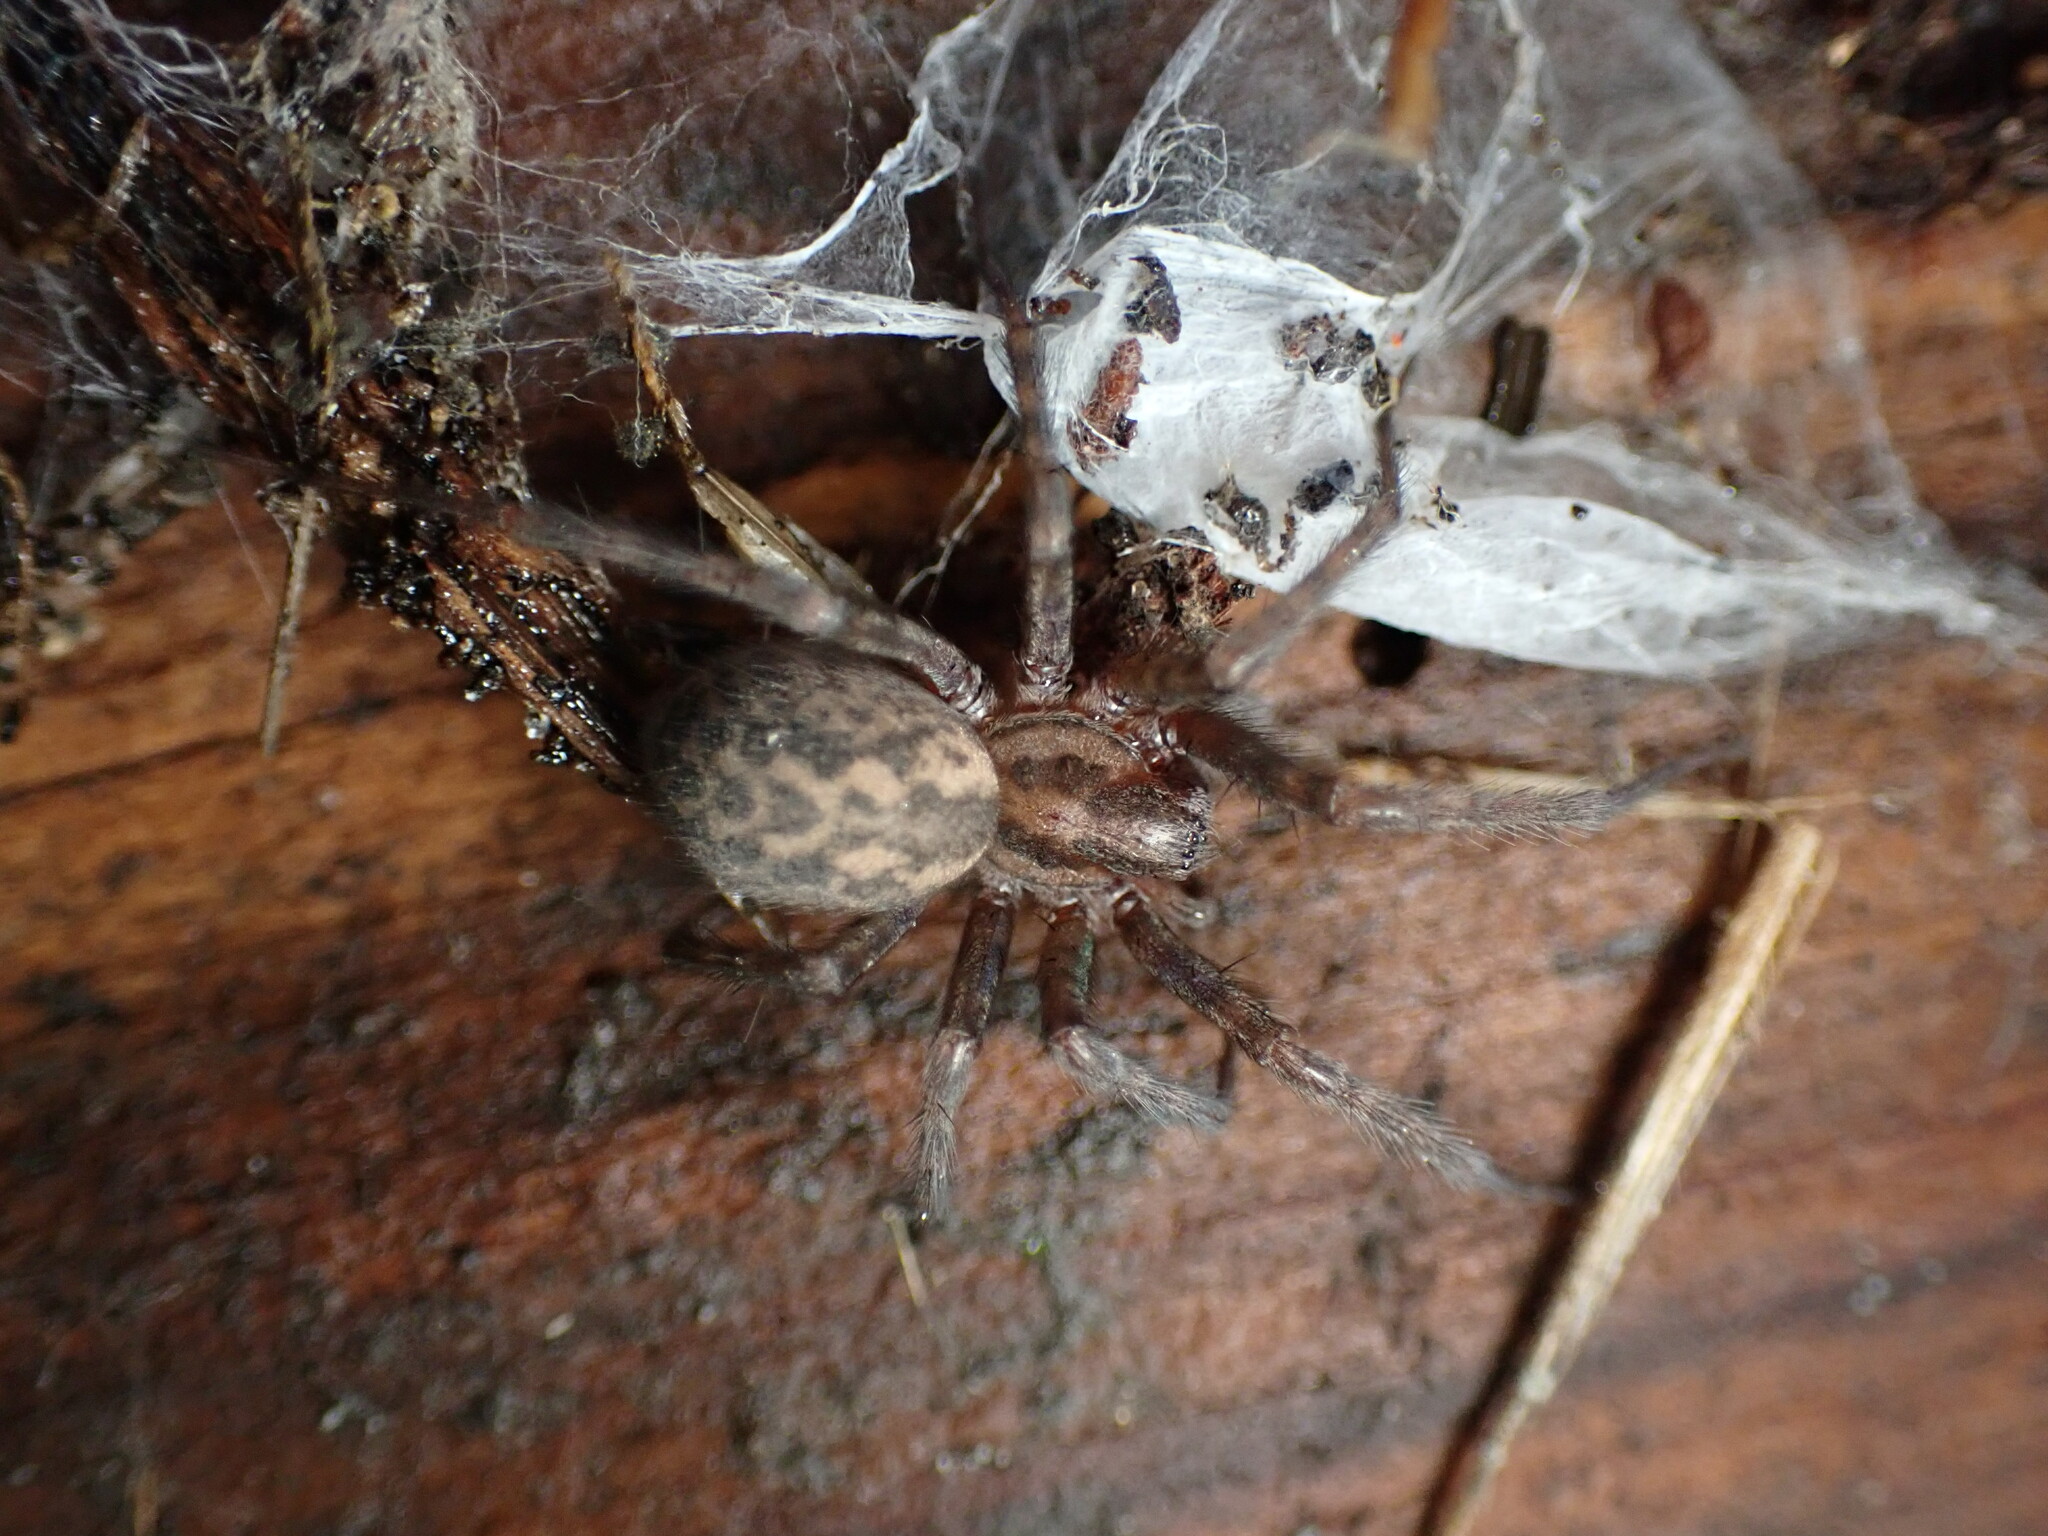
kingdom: Animalia
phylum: Arthropoda
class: Arachnida
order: Araneae
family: Agelenidae
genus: Tegenaria
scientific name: Tegenaria domestica
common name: Barn funnel weaver
